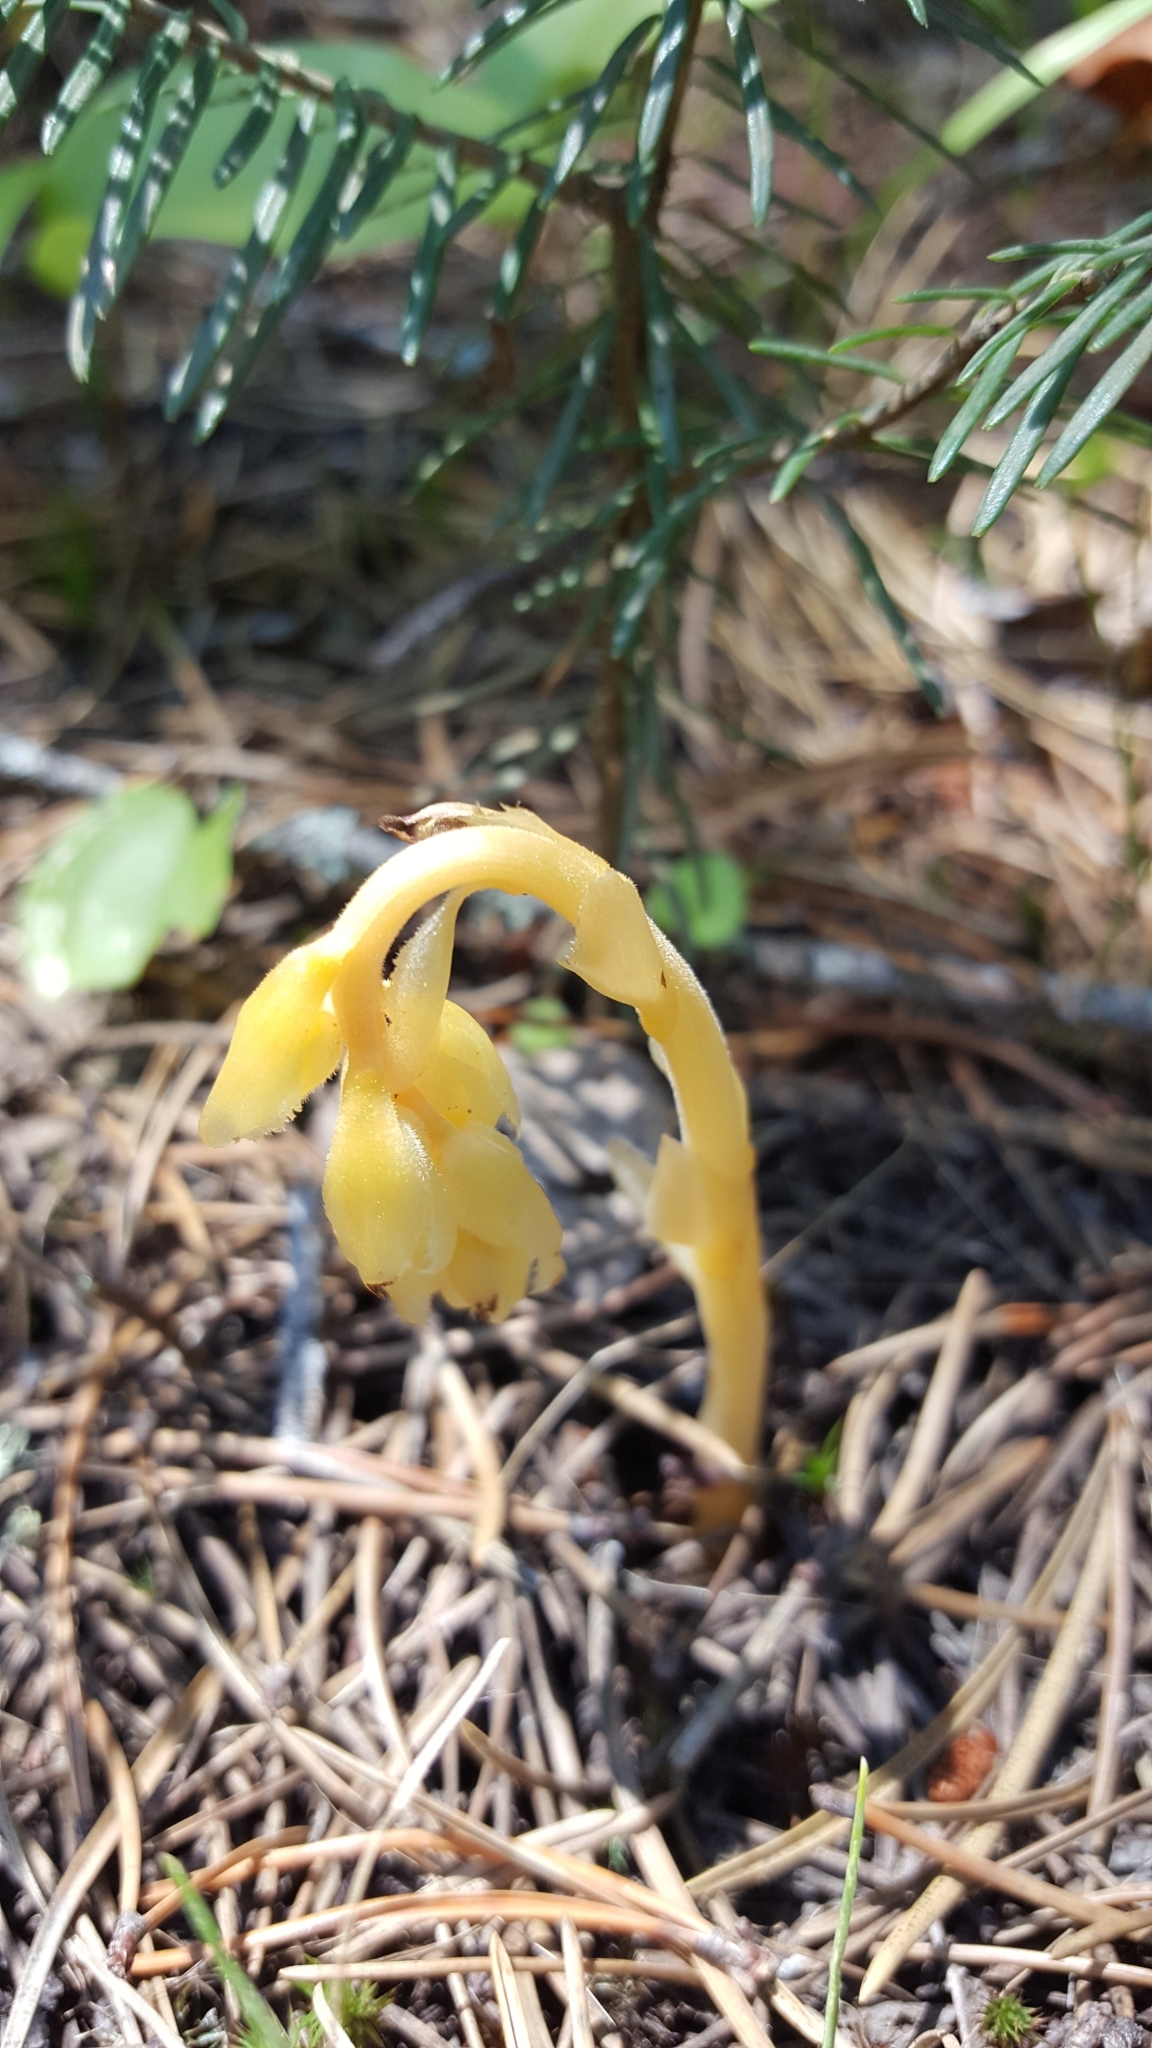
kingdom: Plantae
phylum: Tracheophyta
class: Magnoliopsida
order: Ericales
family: Ericaceae
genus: Hypopitys
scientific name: Hypopitys monotropa
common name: Yellow bird's-nest
